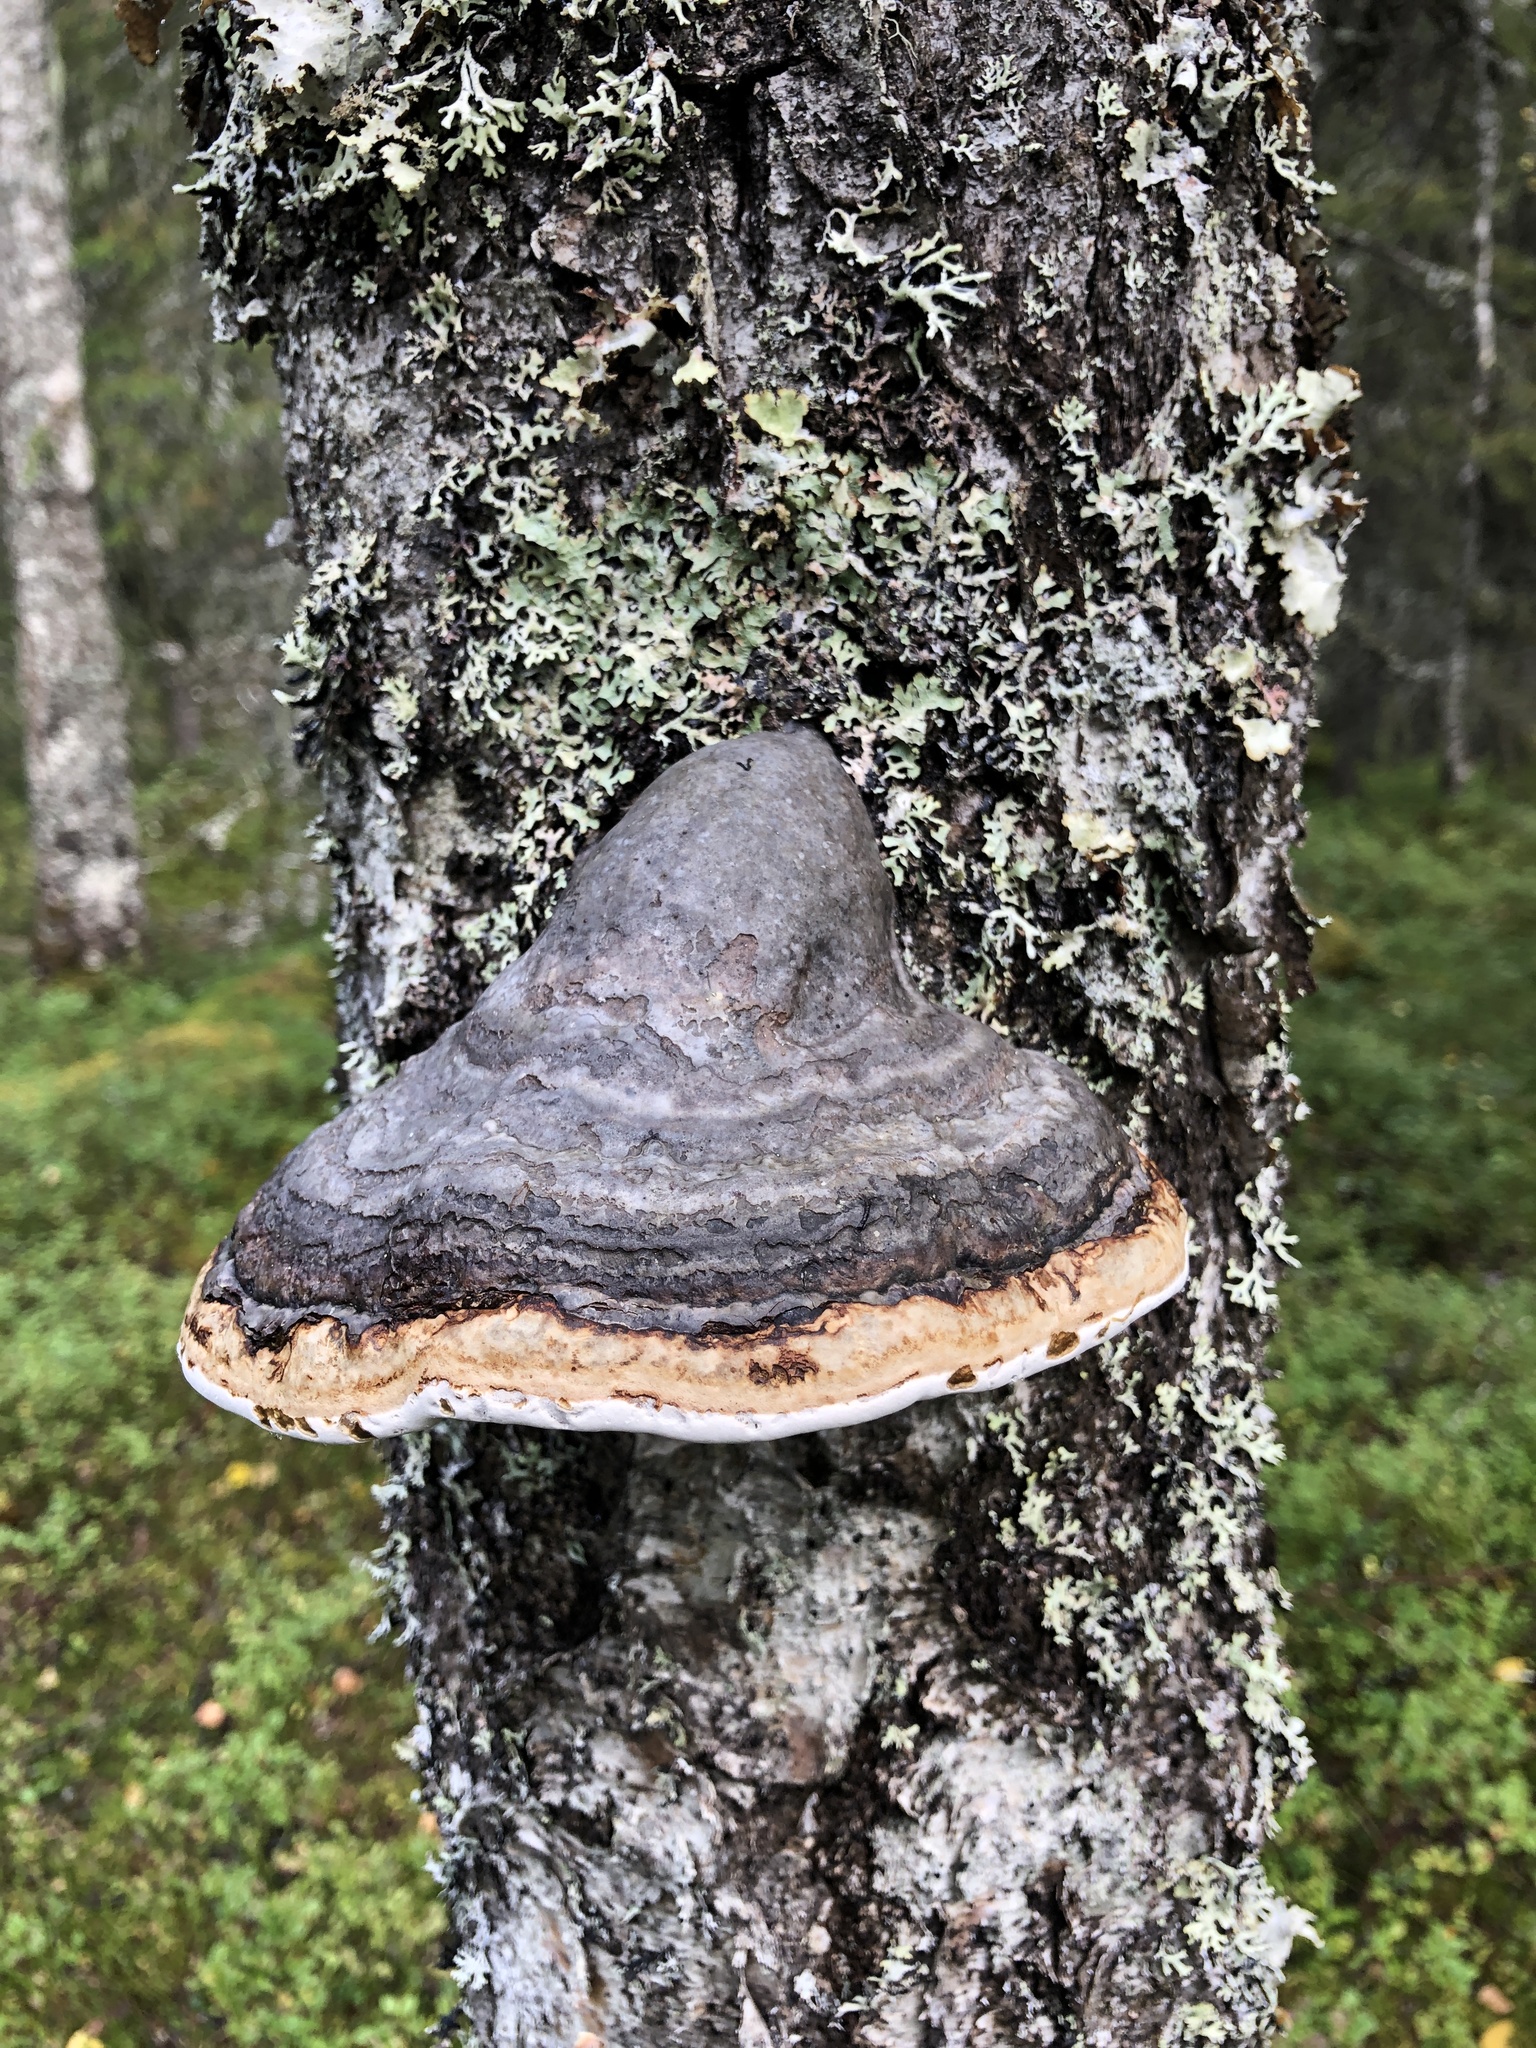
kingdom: Fungi
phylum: Basidiomycota
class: Agaricomycetes
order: Polyporales
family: Fomitopsidaceae
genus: Fomitopsis
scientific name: Fomitopsis pinicola
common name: Red-belted bracket
